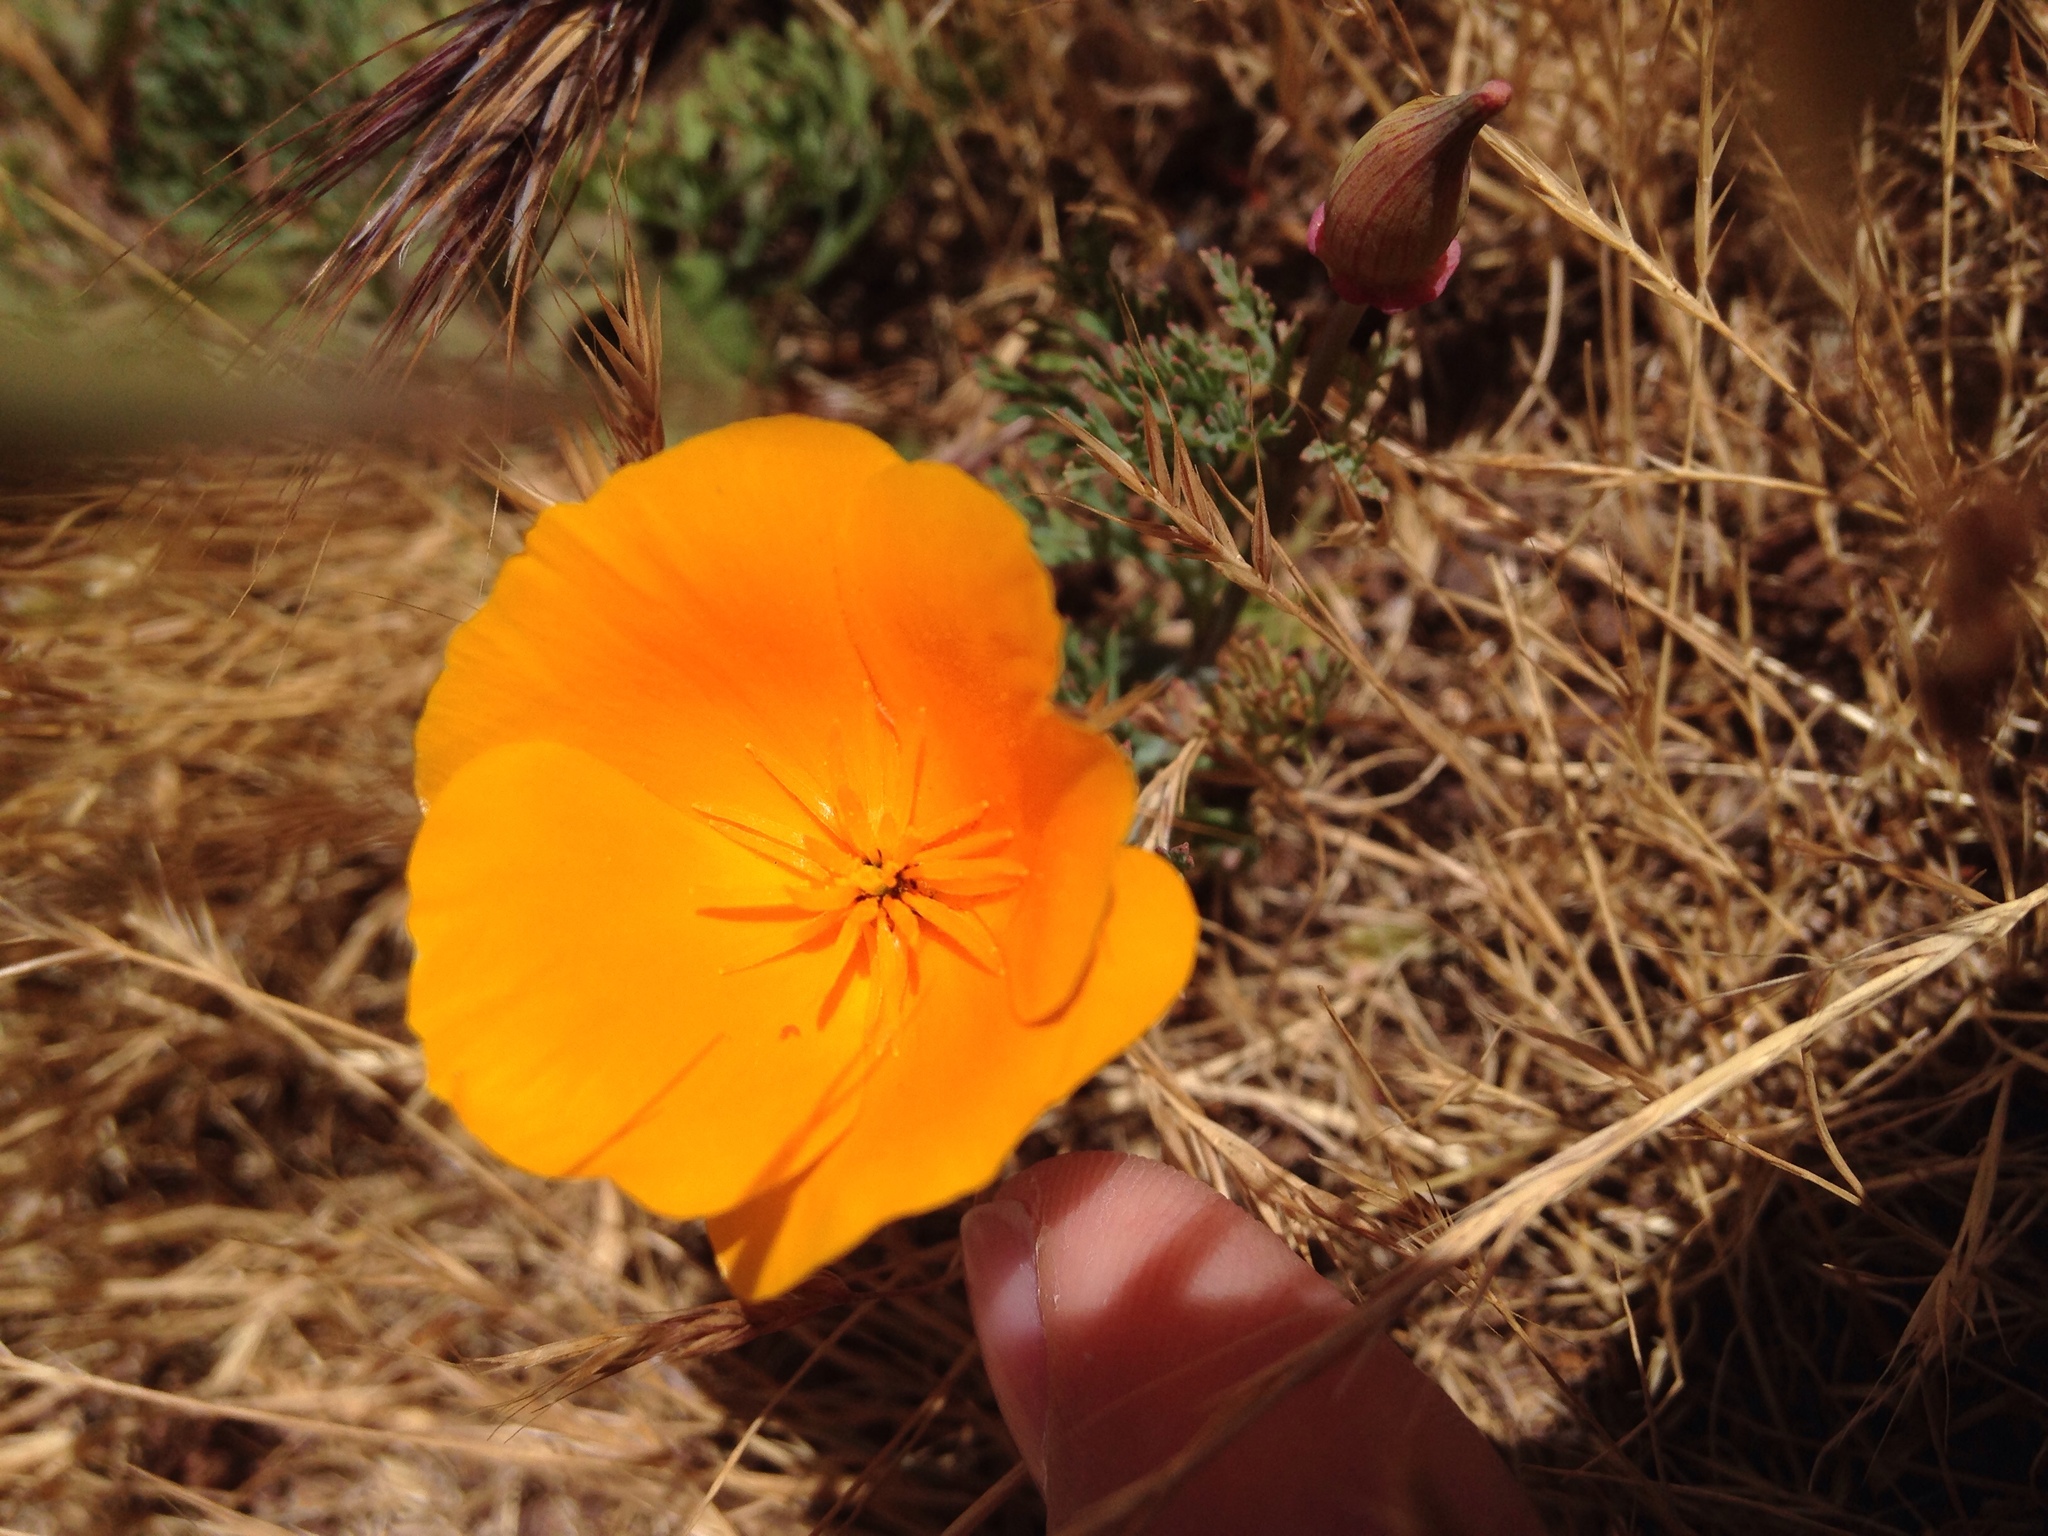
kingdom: Plantae
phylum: Tracheophyta
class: Magnoliopsida
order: Ranunculales
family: Papaveraceae
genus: Eschscholzia
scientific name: Eschscholzia californica
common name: California poppy
